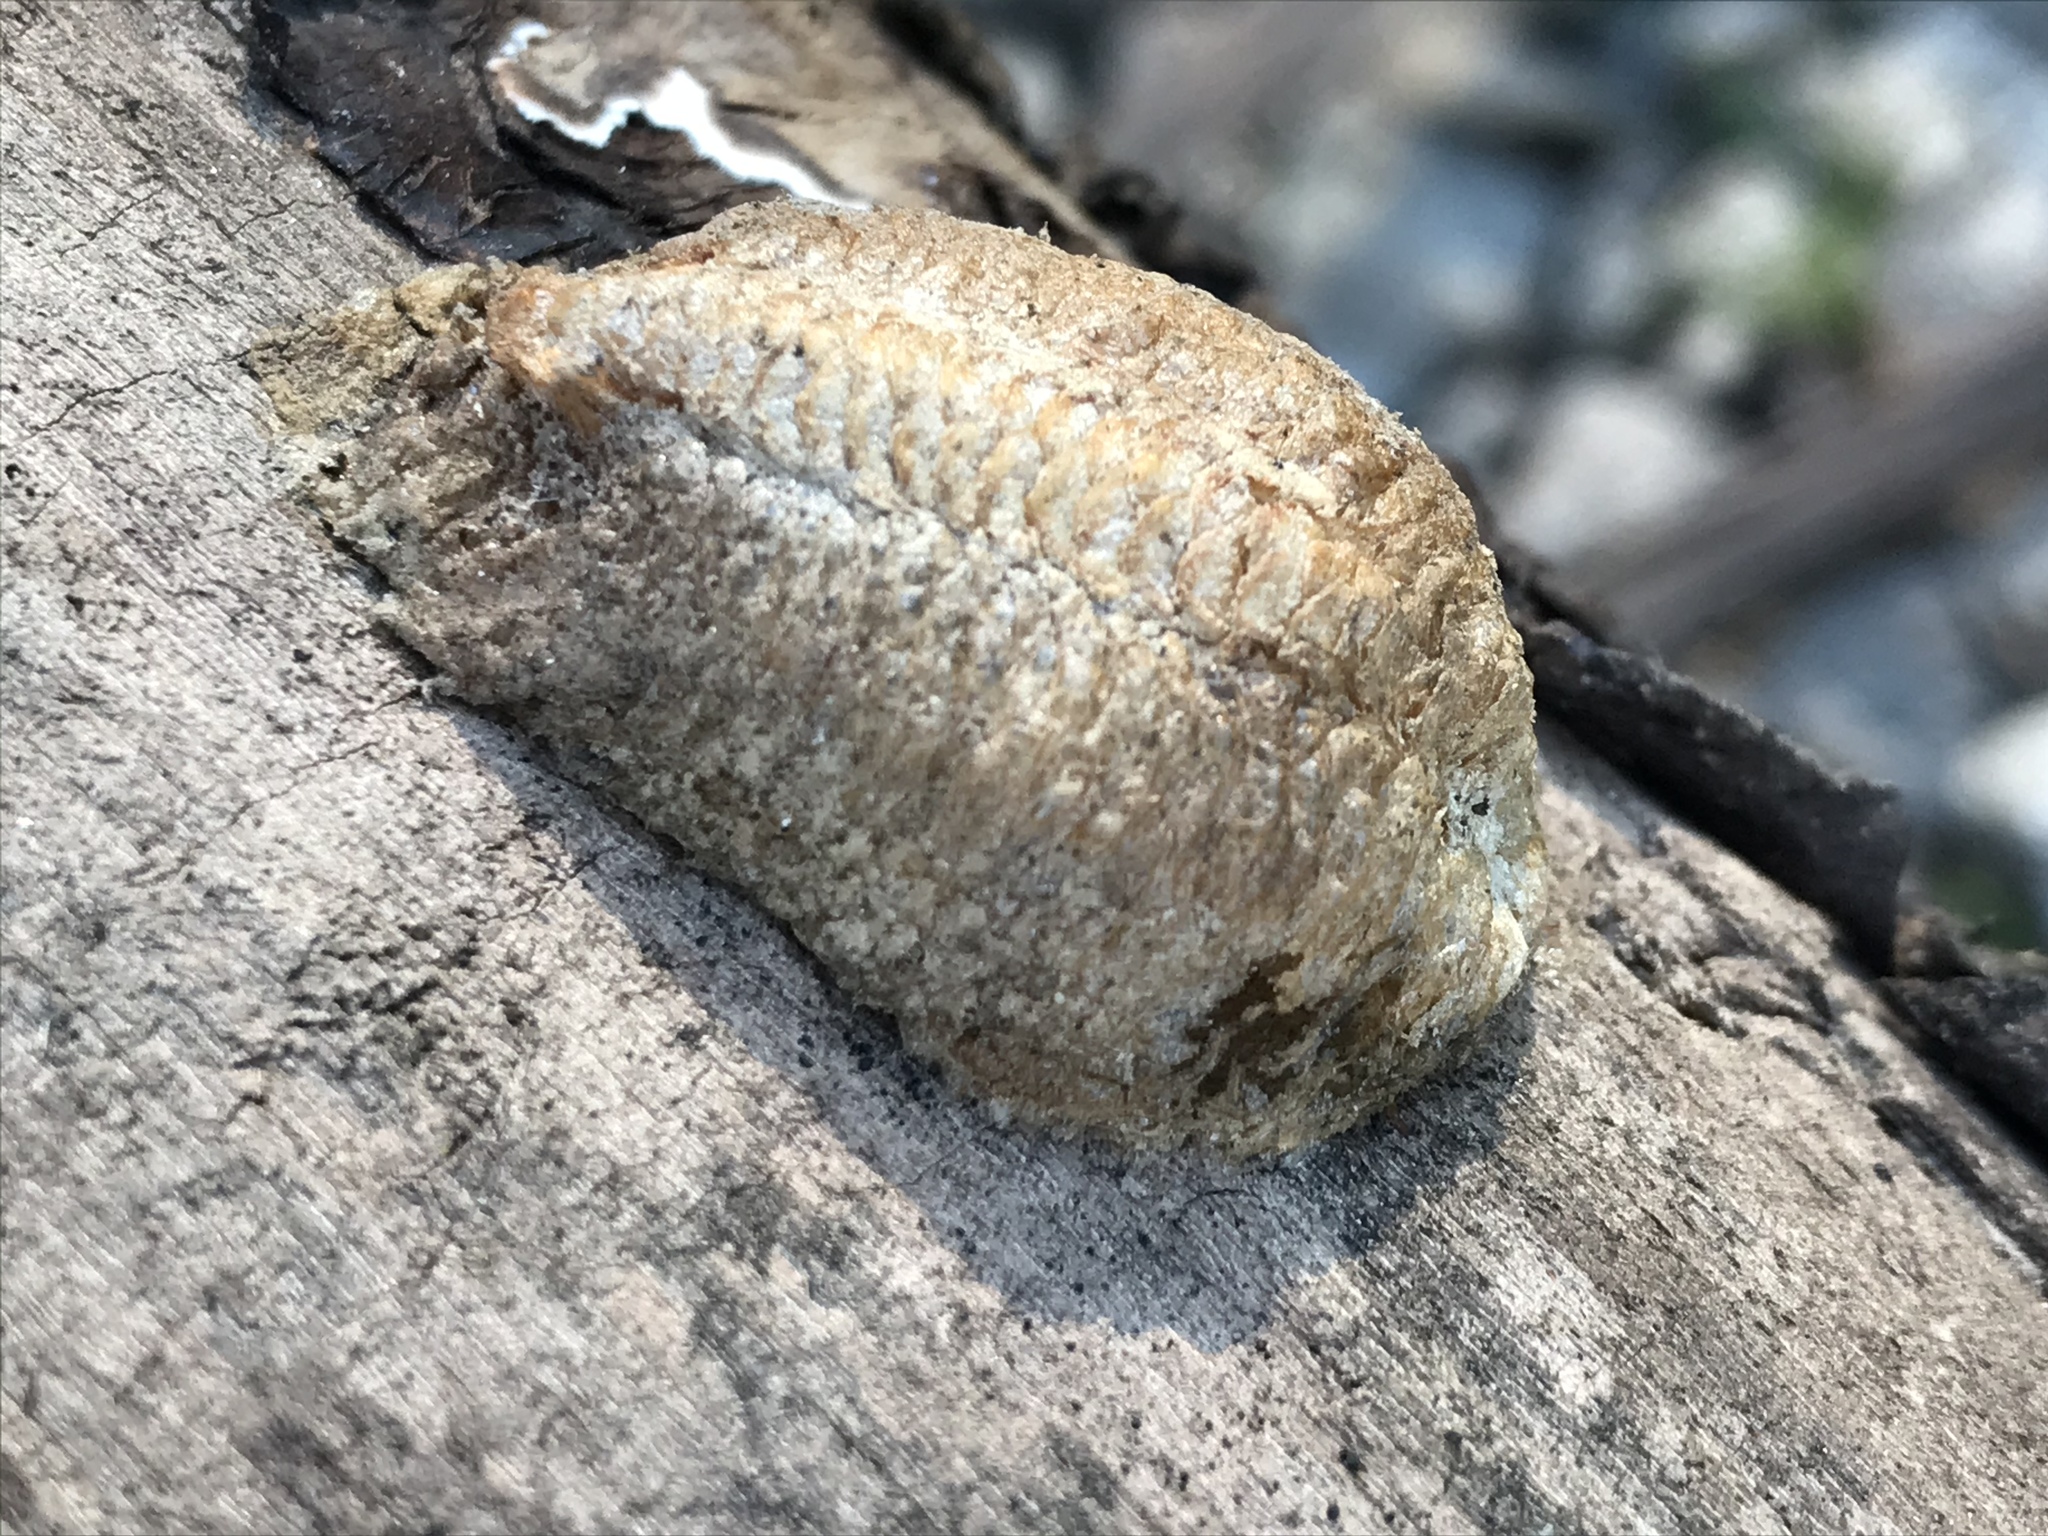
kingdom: Animalia
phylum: Arthropoda
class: Insecta
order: Mantodea
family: Mantidae
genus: Mantis
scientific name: Mantis religiosa
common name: Praying mantis
